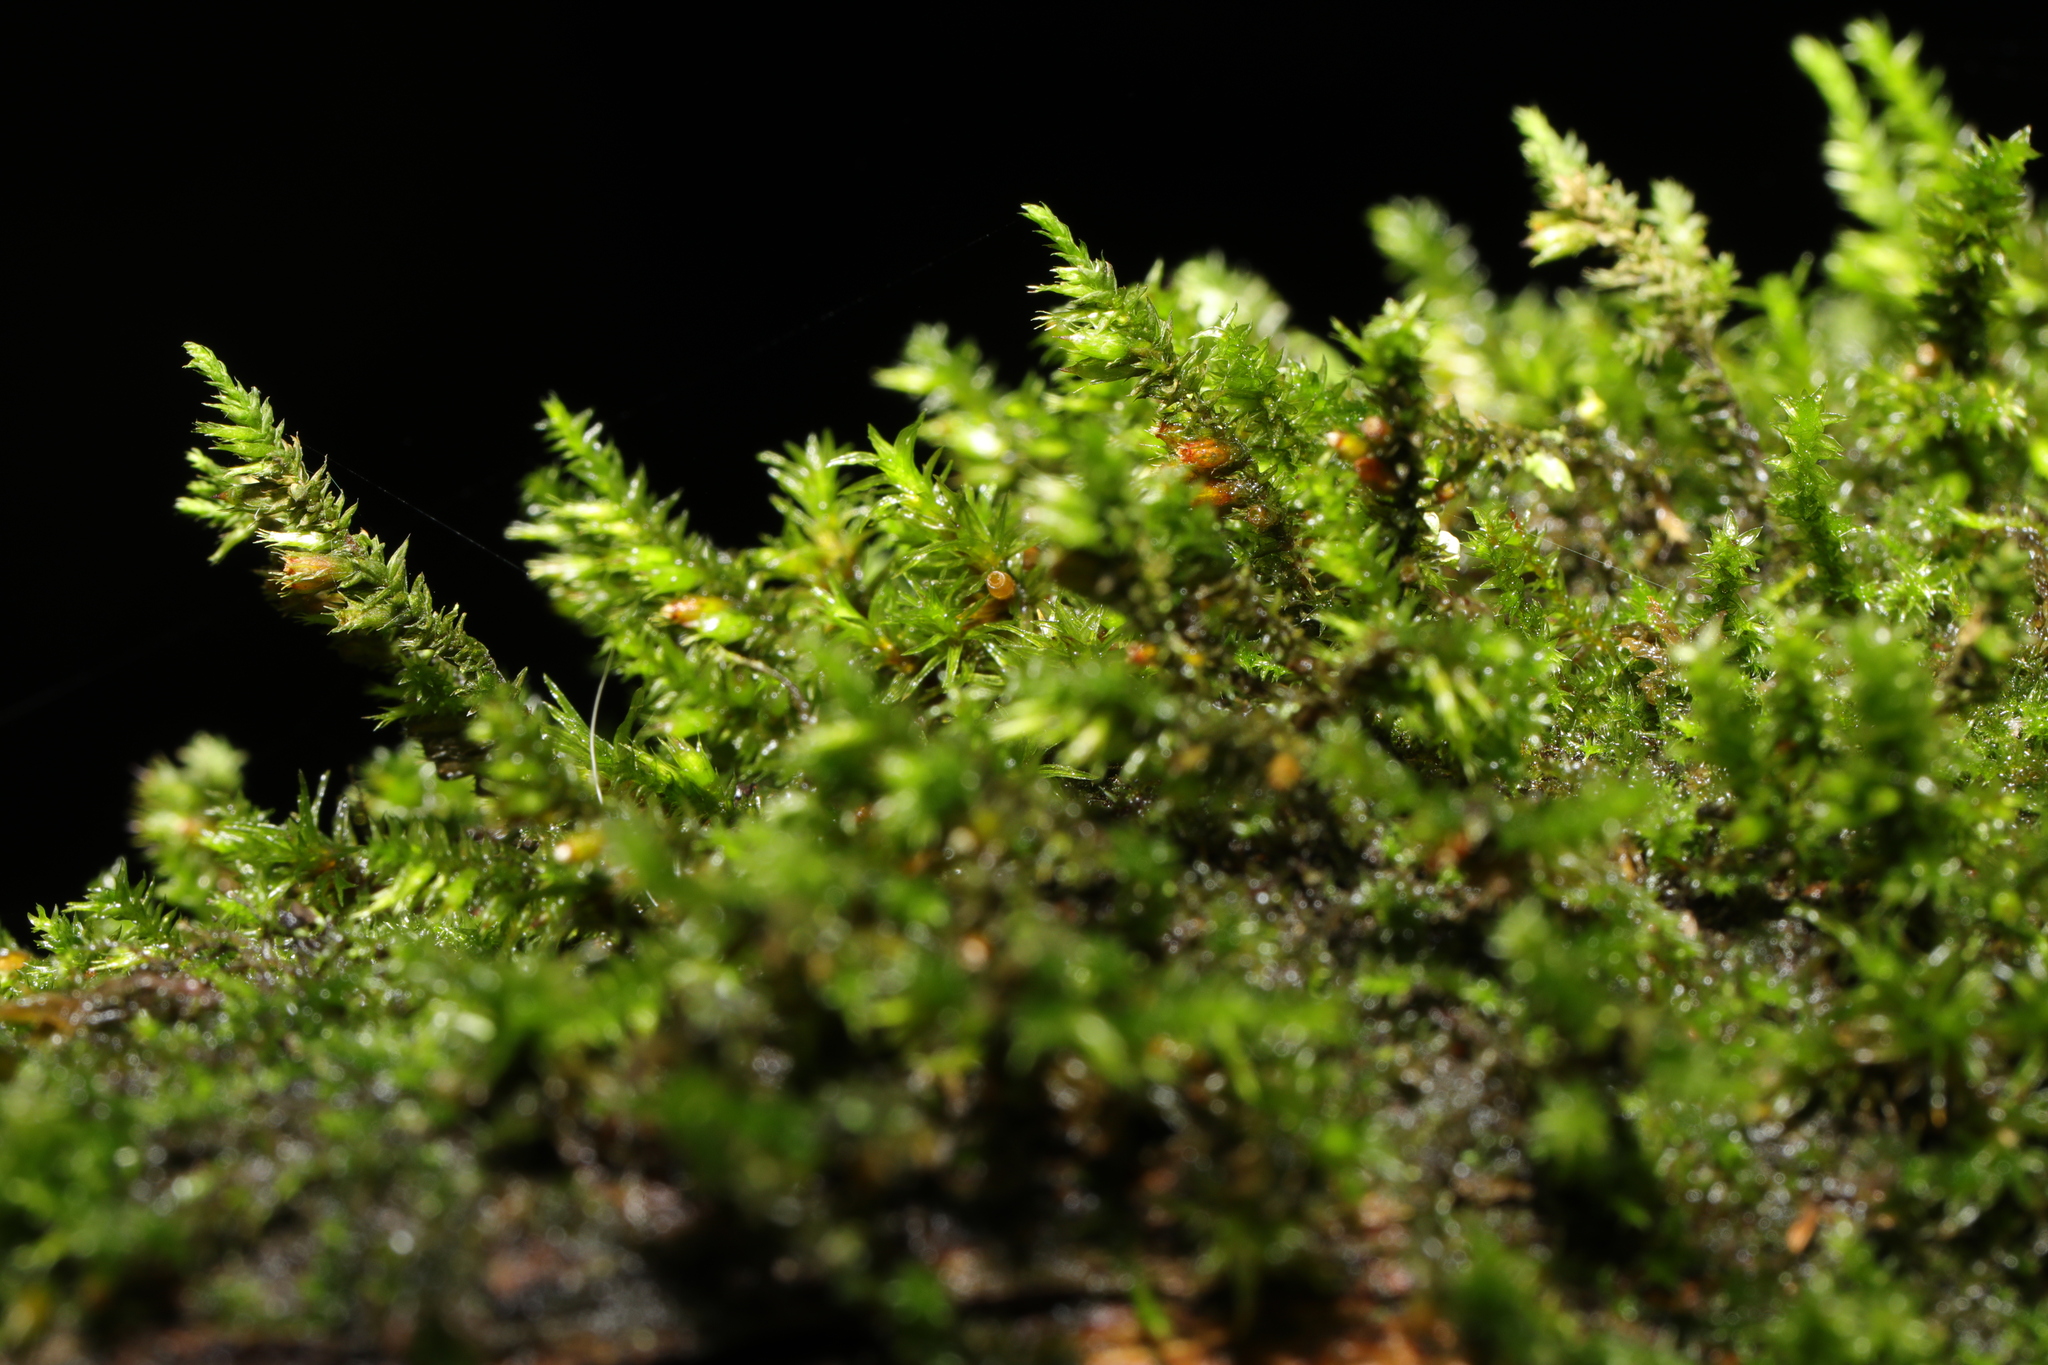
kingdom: Plantae
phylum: Bryophyta
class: Bryopsida
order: Hypnales
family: Cryphaeaceae
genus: Cryphaea
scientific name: Cryphaea heteromalla
